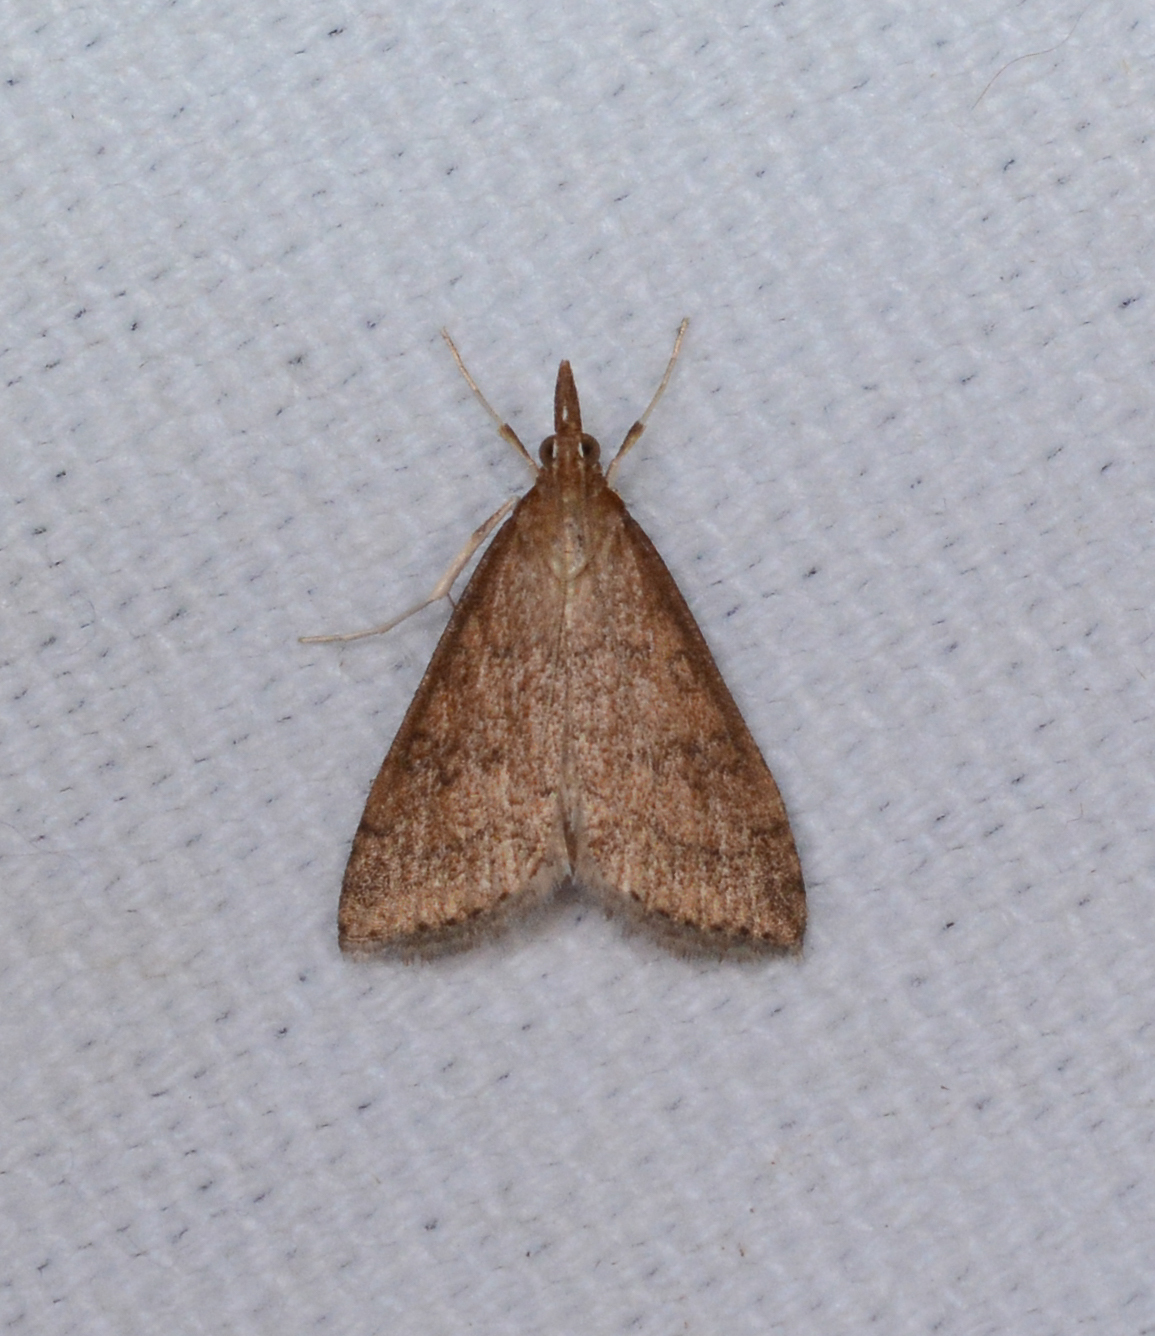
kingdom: Animalia
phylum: Arthropoda
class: Insecta
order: Lepidoptera
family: Crambidae
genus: Udea
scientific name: Udea rubigalis
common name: Celery leaftier moth
